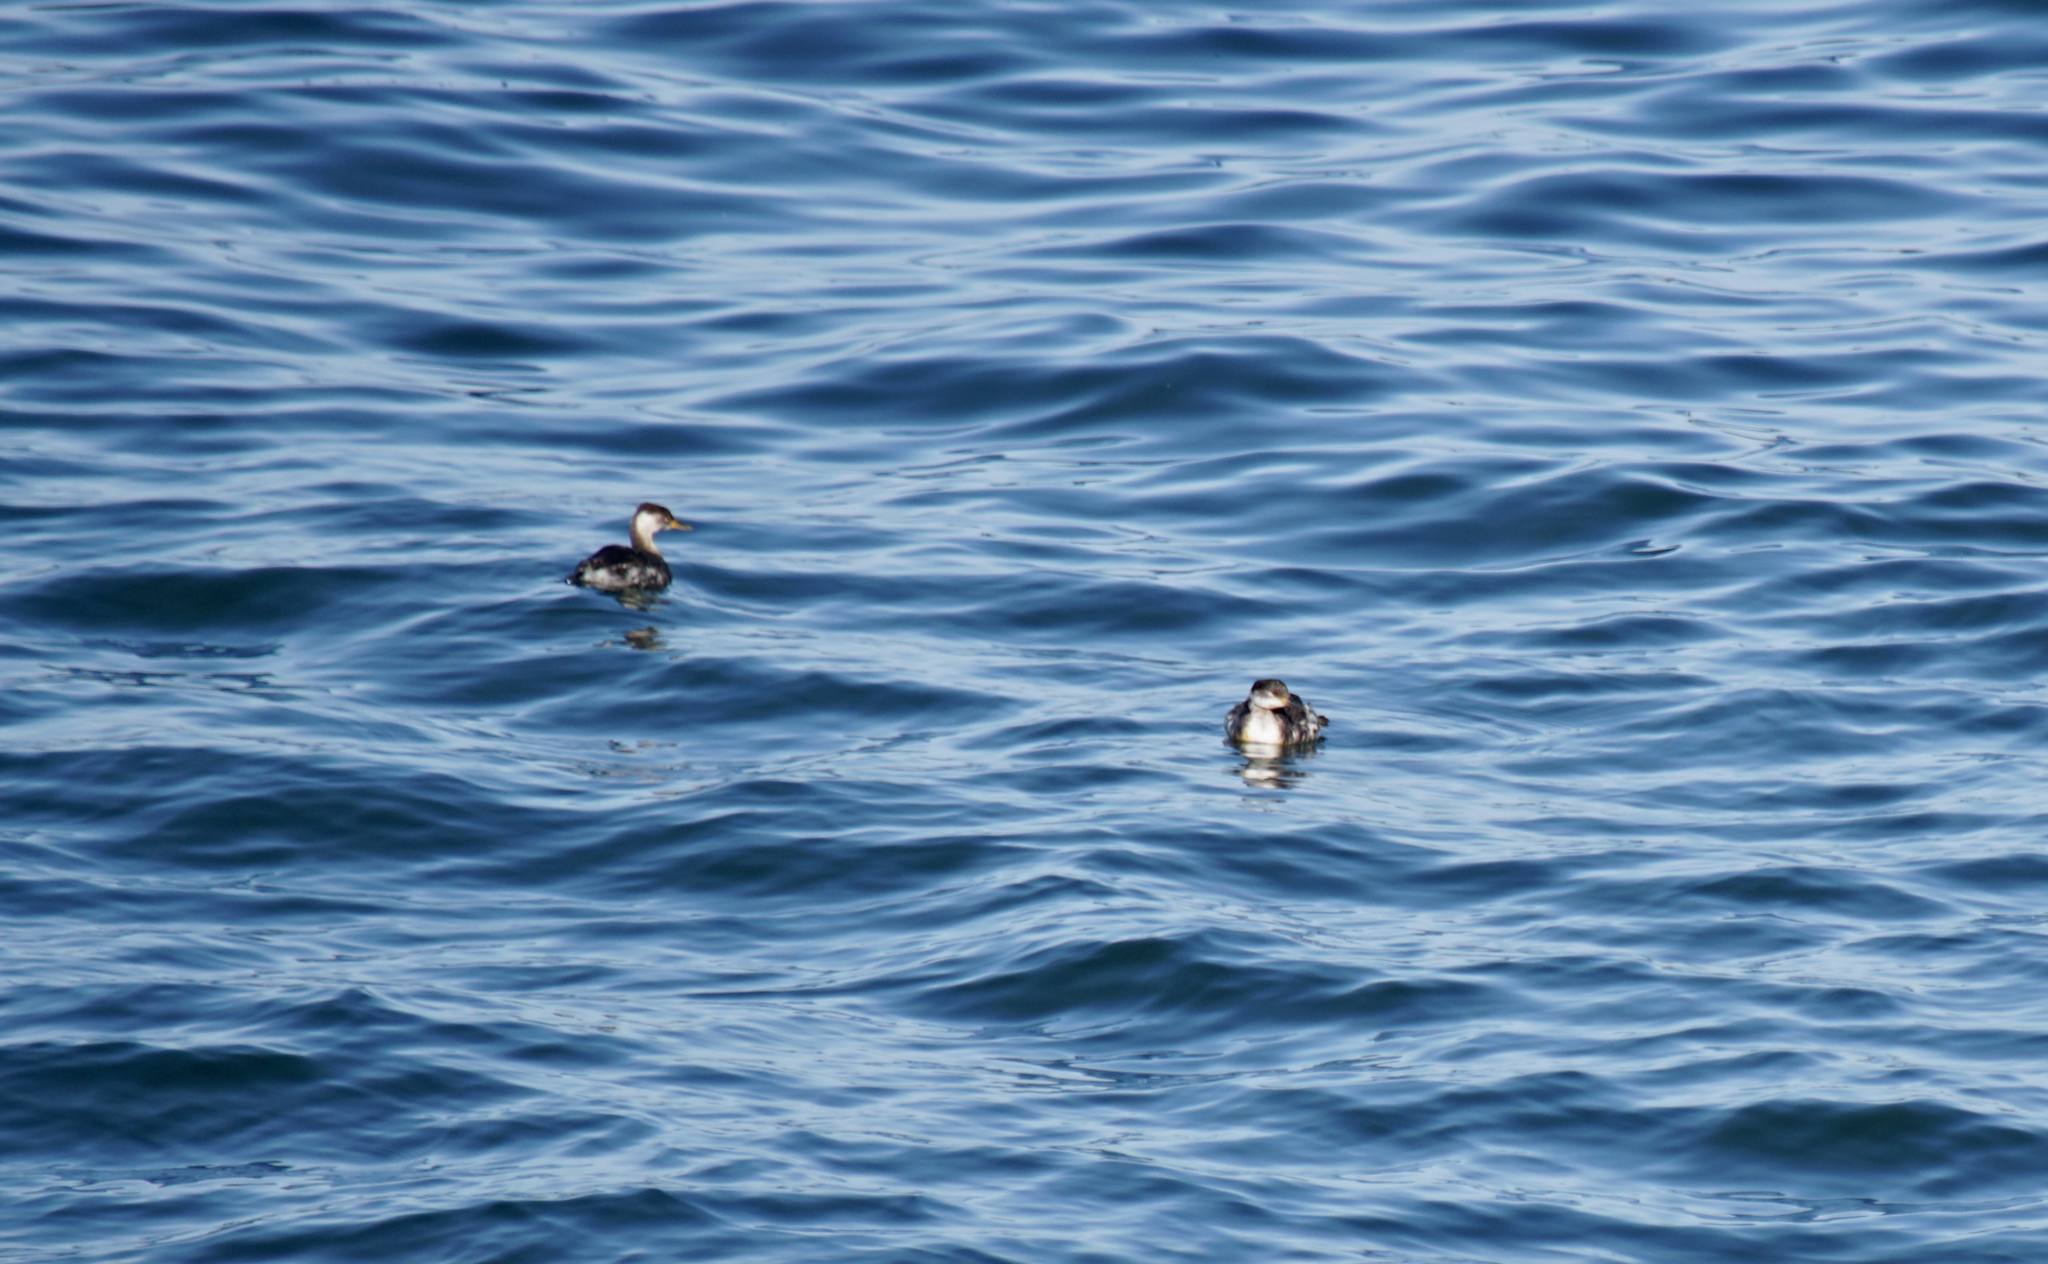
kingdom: Animalia
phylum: Chordata
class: Aves
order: Podicipediformes
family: Podicipedidae
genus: Podiceps
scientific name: Podiceps auritus
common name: Horned grebe
